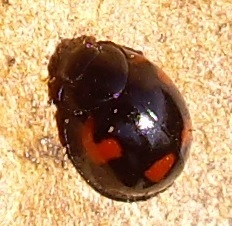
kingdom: Animalia
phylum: Arthropoda
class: Insecta
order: Coleoptera
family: Coccinellidae
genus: Brumus
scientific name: Brumus quadripustulatus
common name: Ladybird beetle
